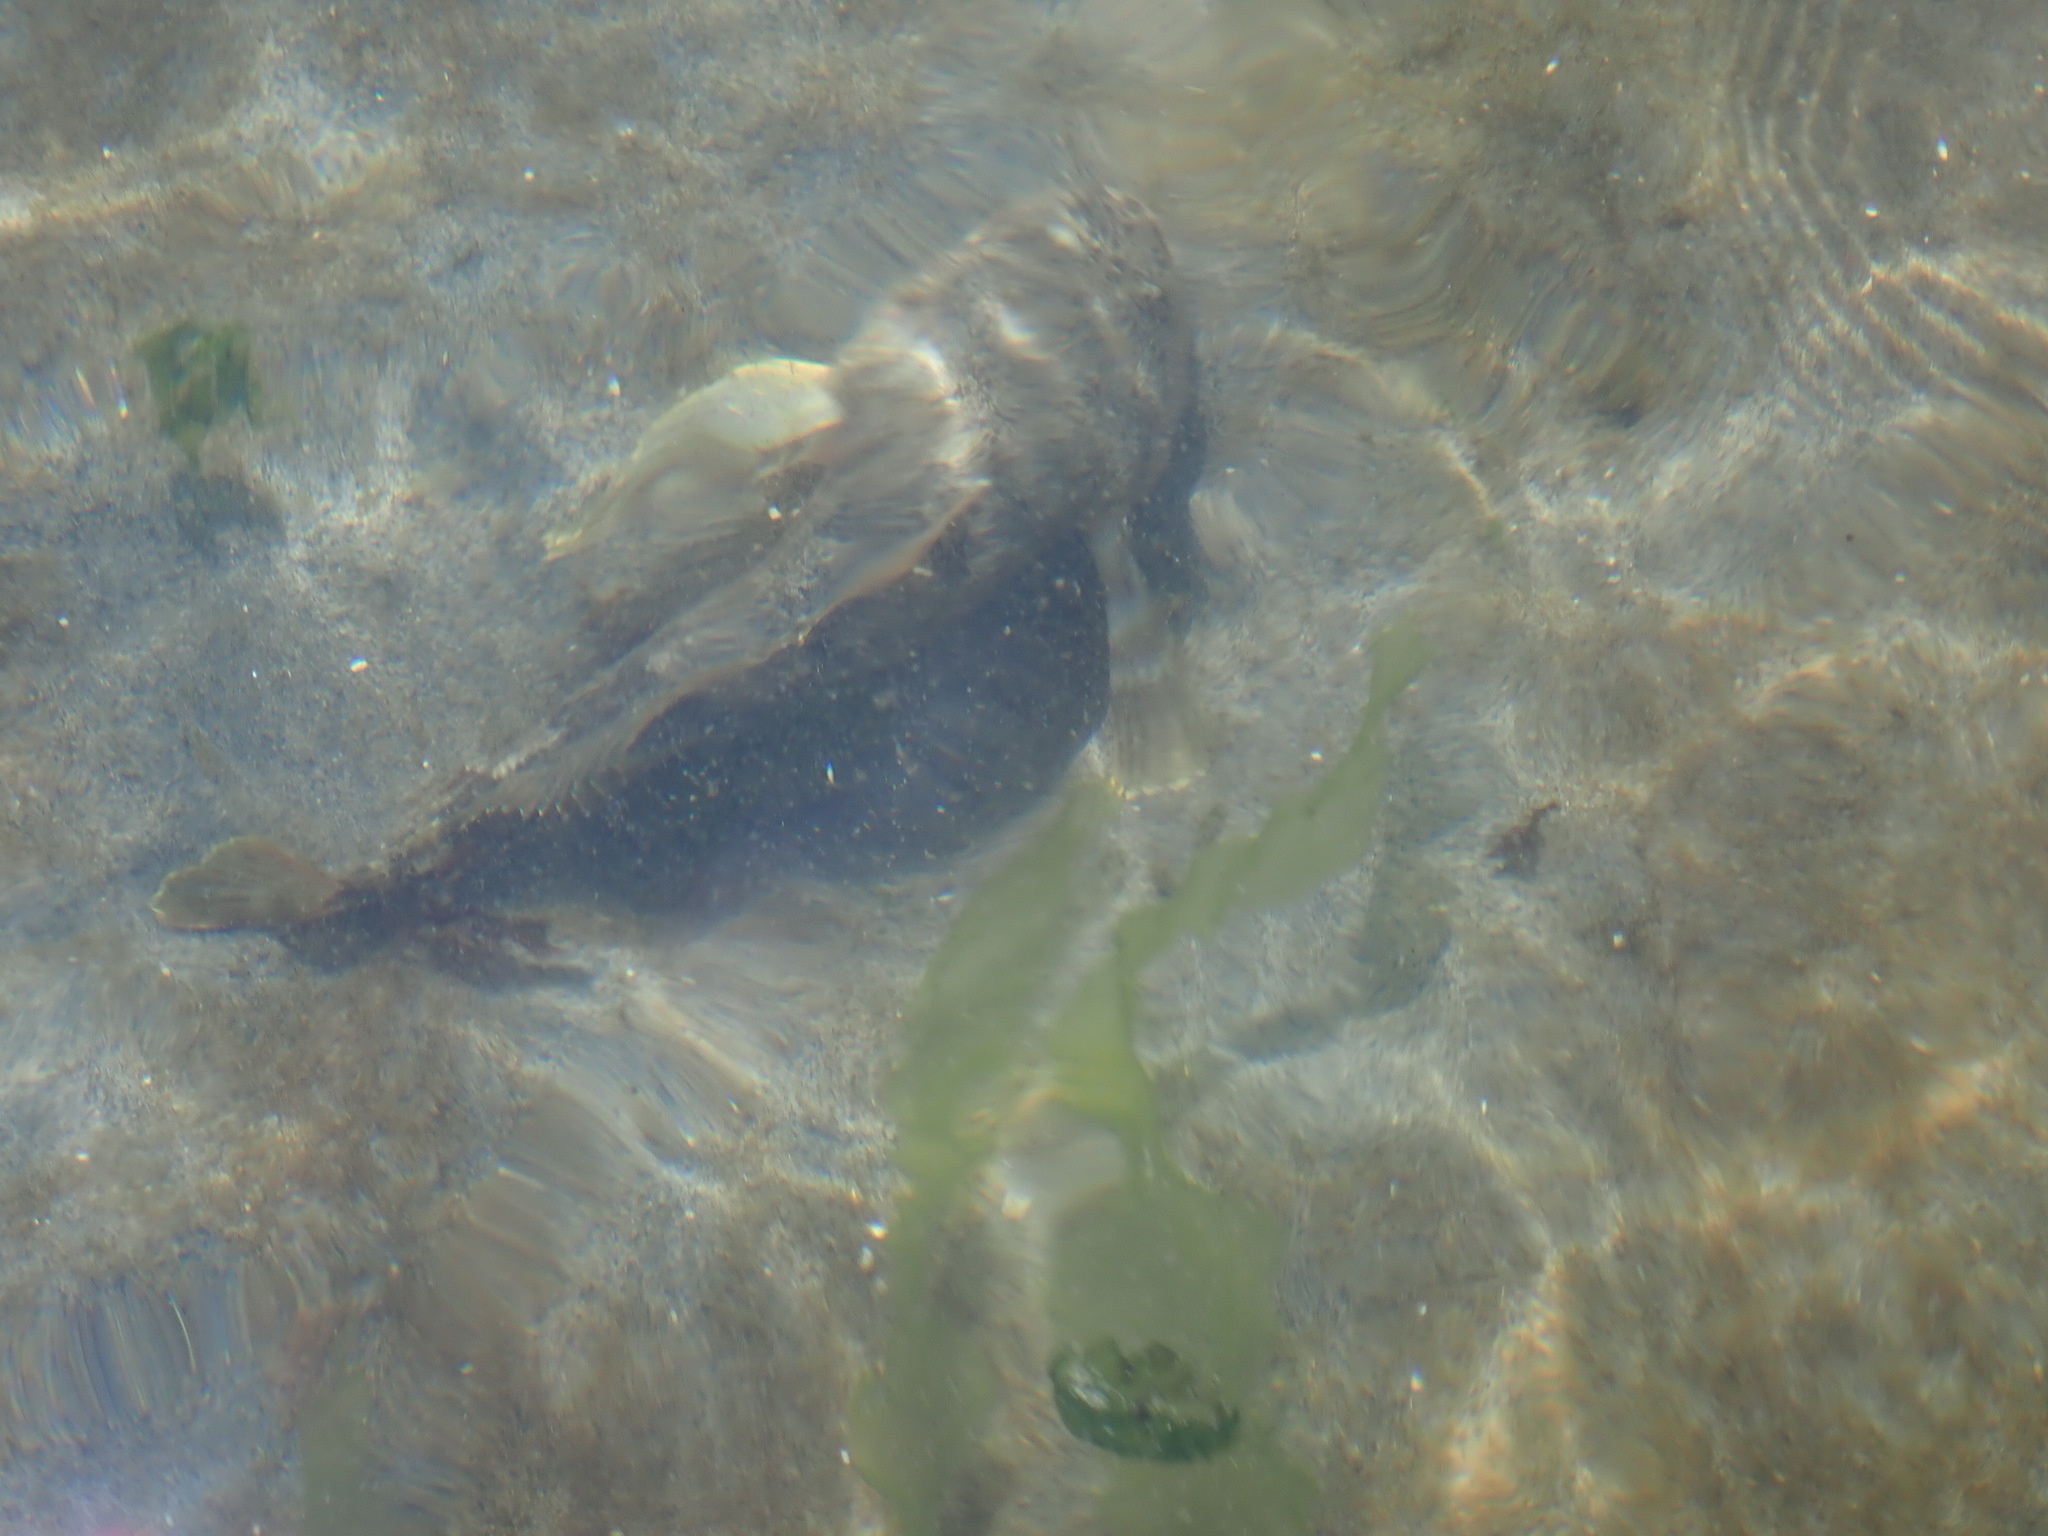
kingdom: Animalia
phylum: Chordata
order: Scorpaeniformes
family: Cottidae
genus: Leptocottus
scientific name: Leptocottus armatus
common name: Pacific staghorn sculpin
